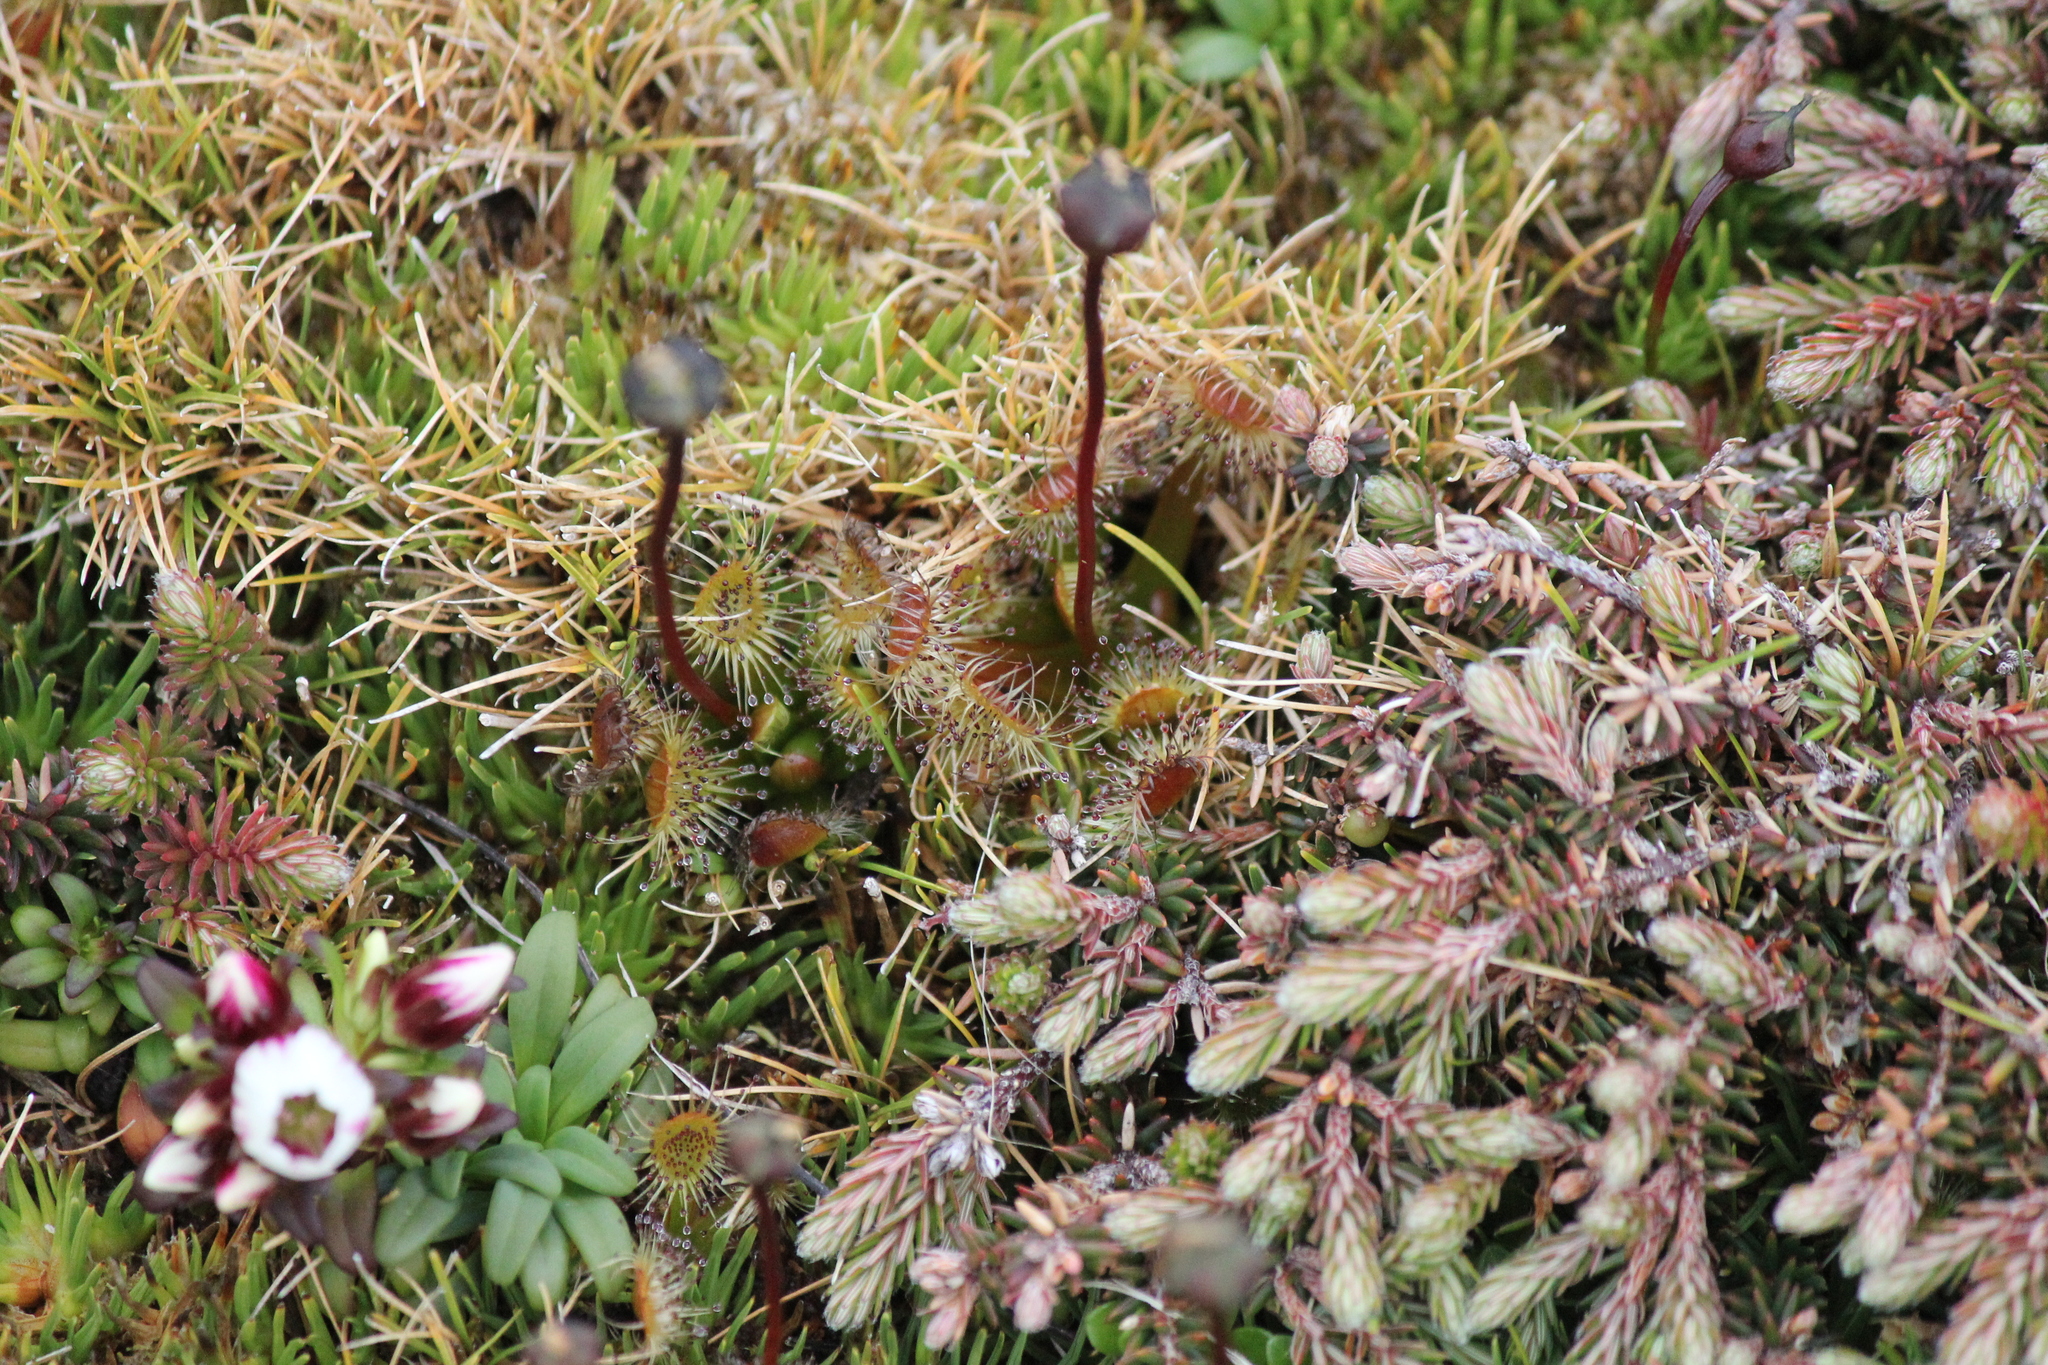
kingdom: Plantae
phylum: Tracheophyta
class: Magnoliopsida
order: Caryophyllales
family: Droseraceae
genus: Drosera
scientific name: Drosera stenopetala
